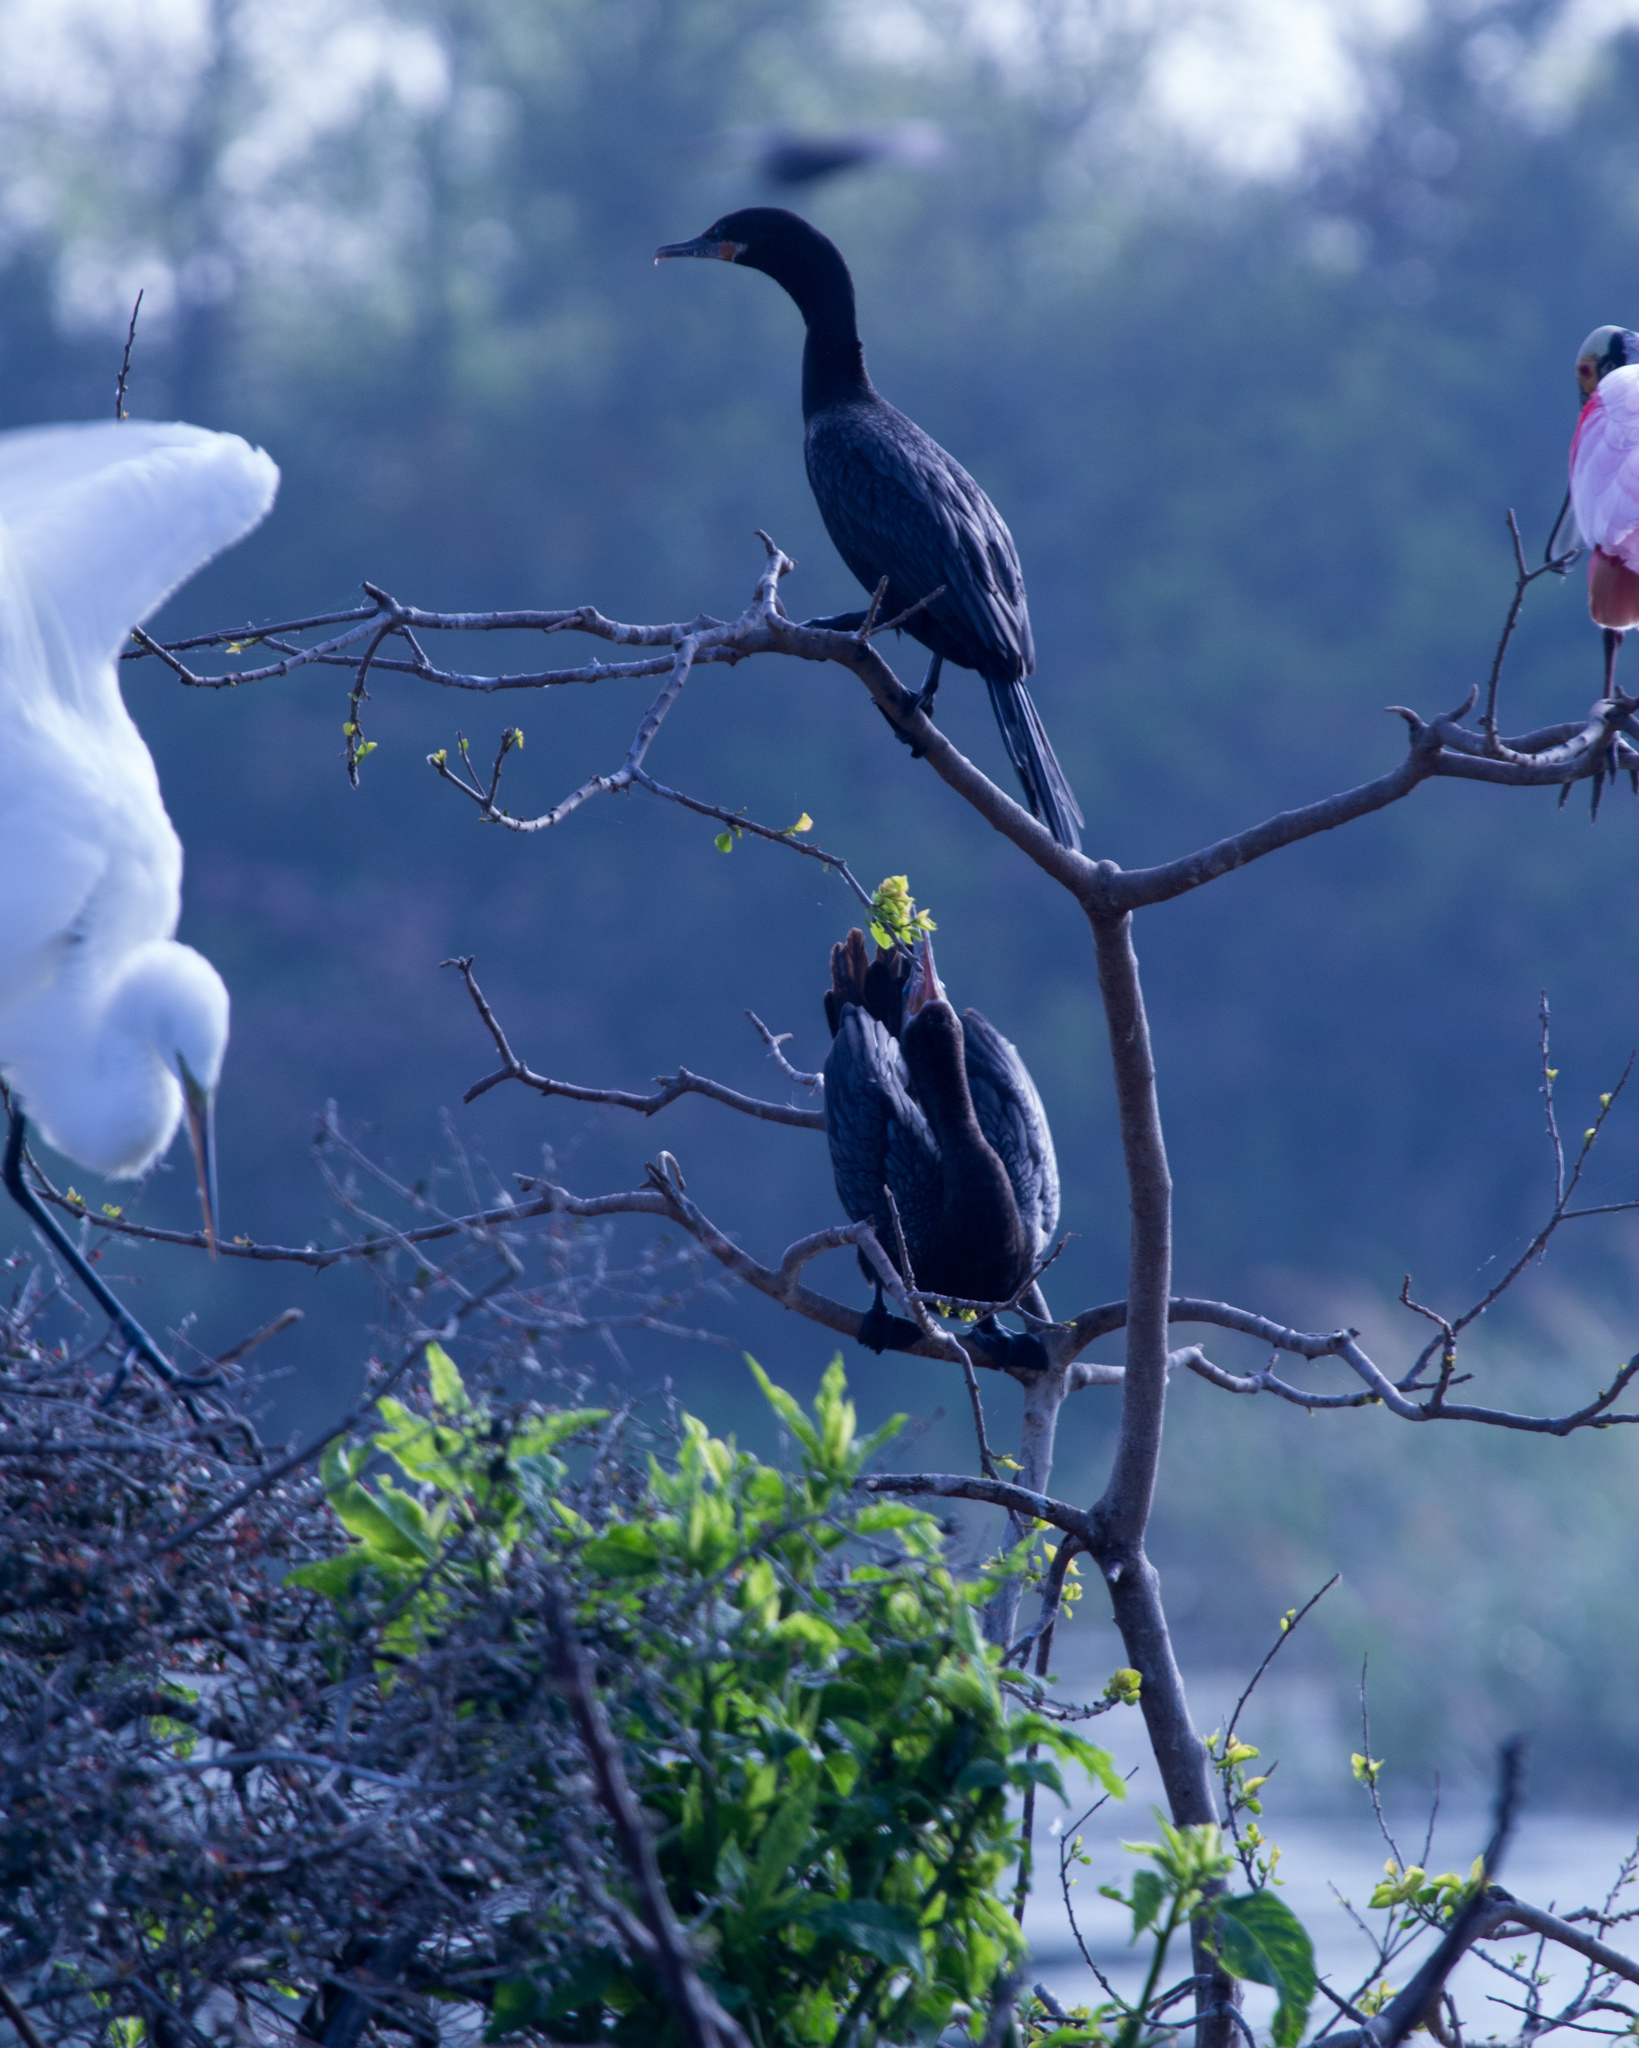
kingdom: Animalia
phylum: Chordata
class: Aves
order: Suliformes
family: Phalacrocoracidae
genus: Phalacrocorax
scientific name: Phalacrocorax brasilianus
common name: Neotropic cormorant
